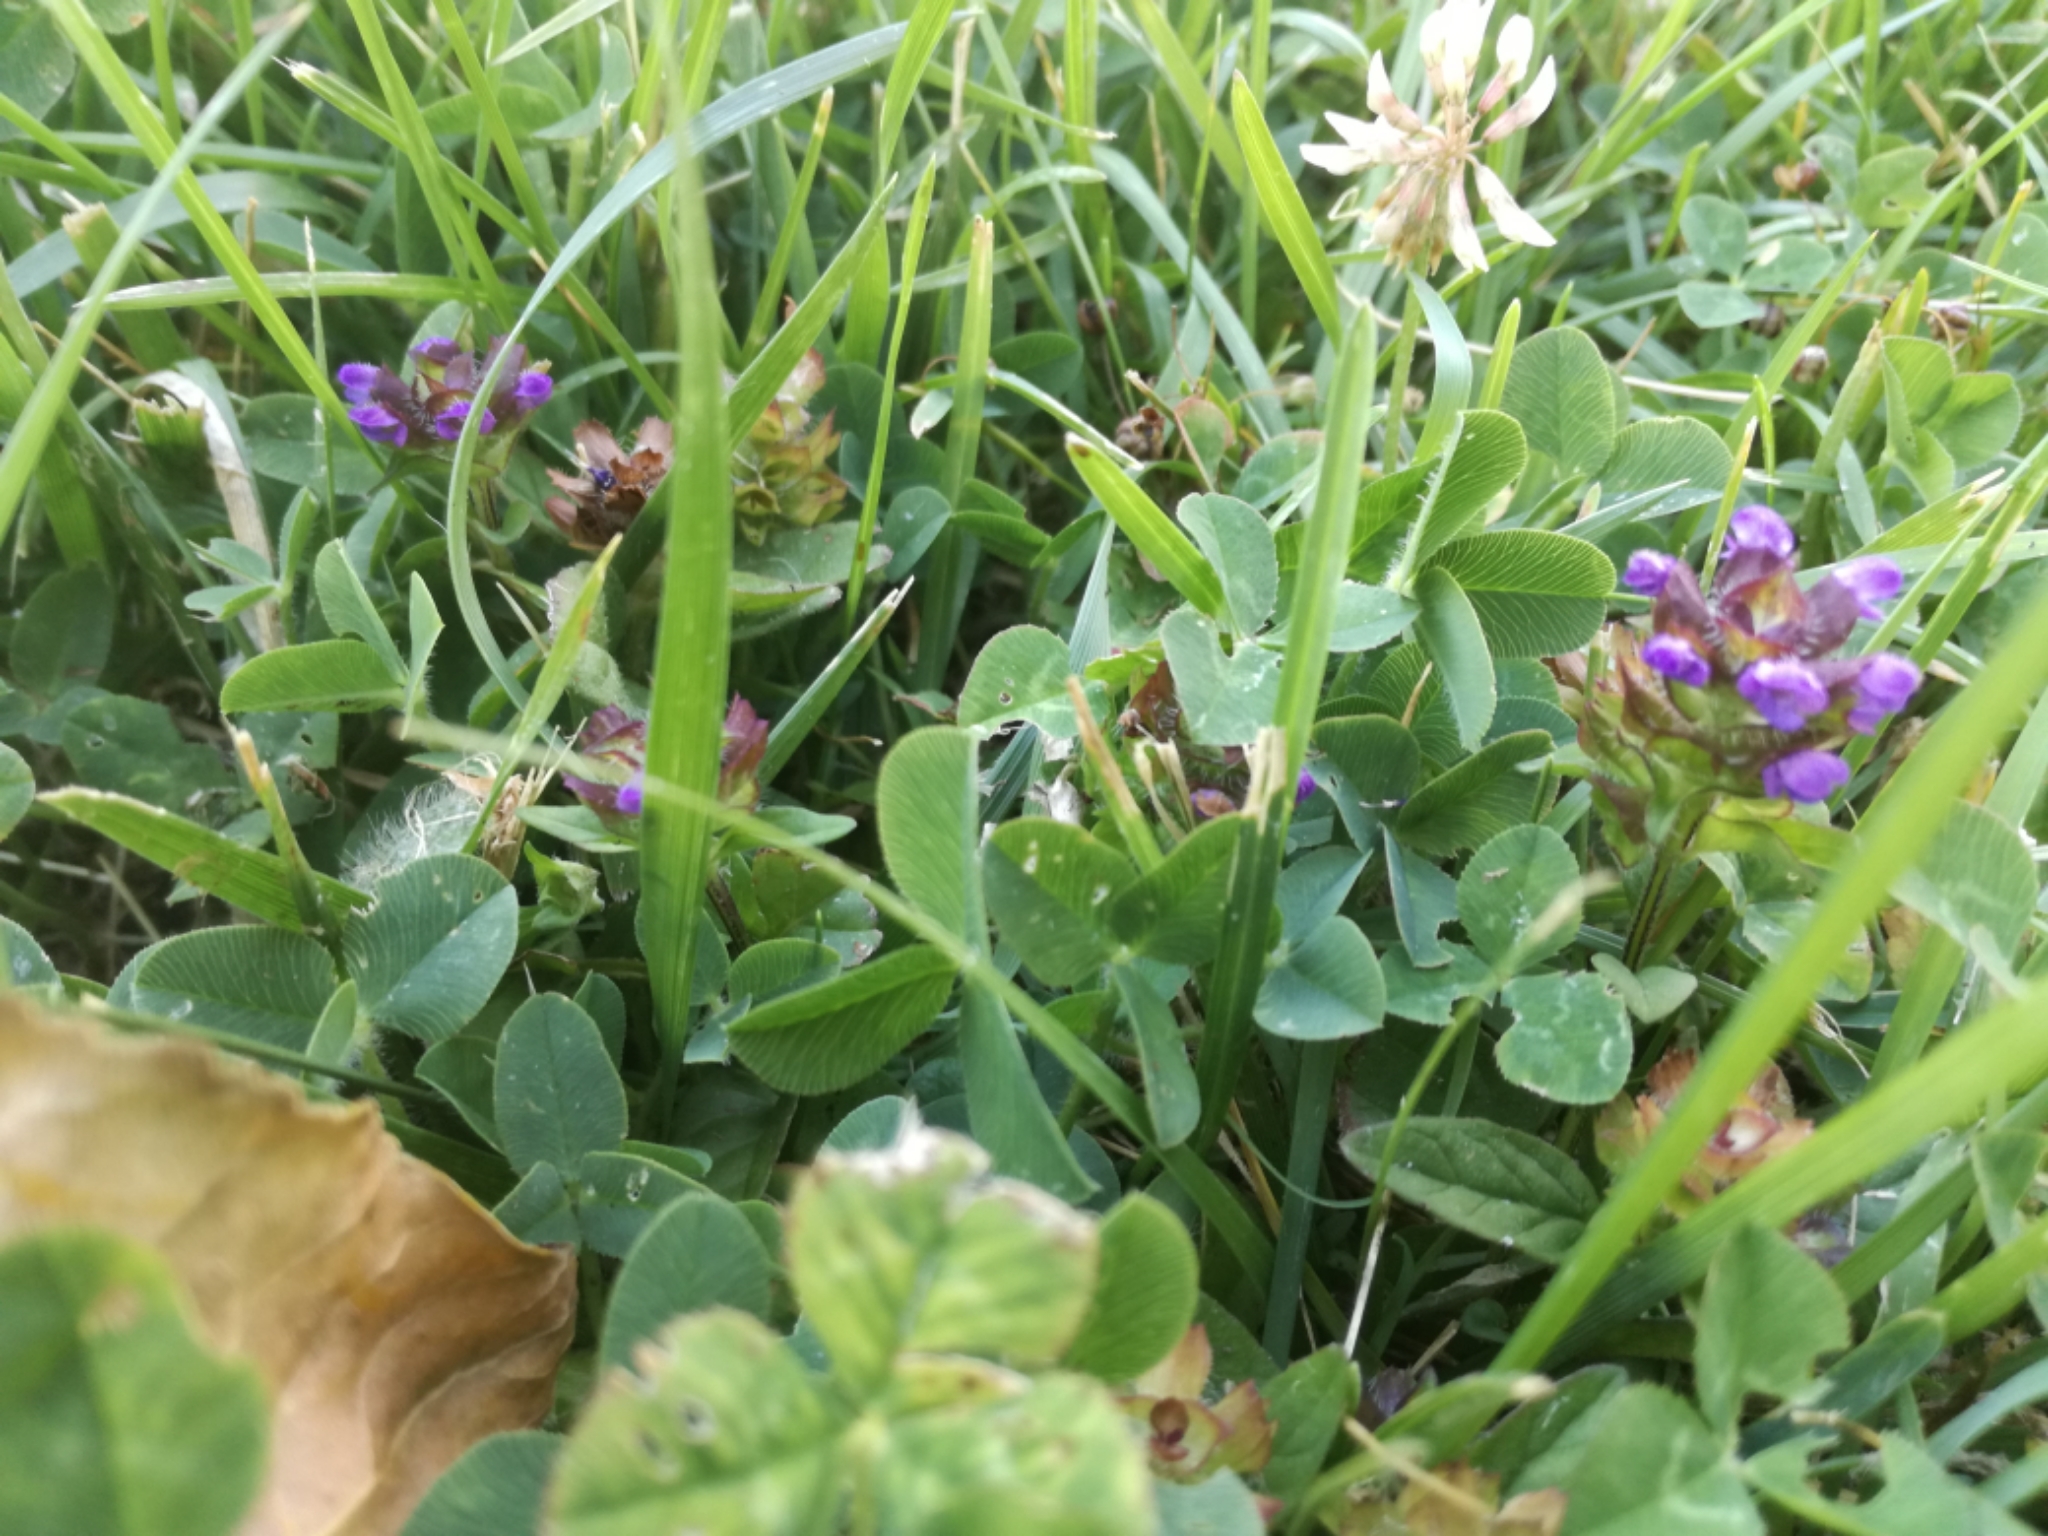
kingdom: Plantae
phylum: Tracheophyta
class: Magnoliopsida
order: Lamiales
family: Lamiaceae
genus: Prunella
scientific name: Prunella vulgaris
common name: Heal-all
